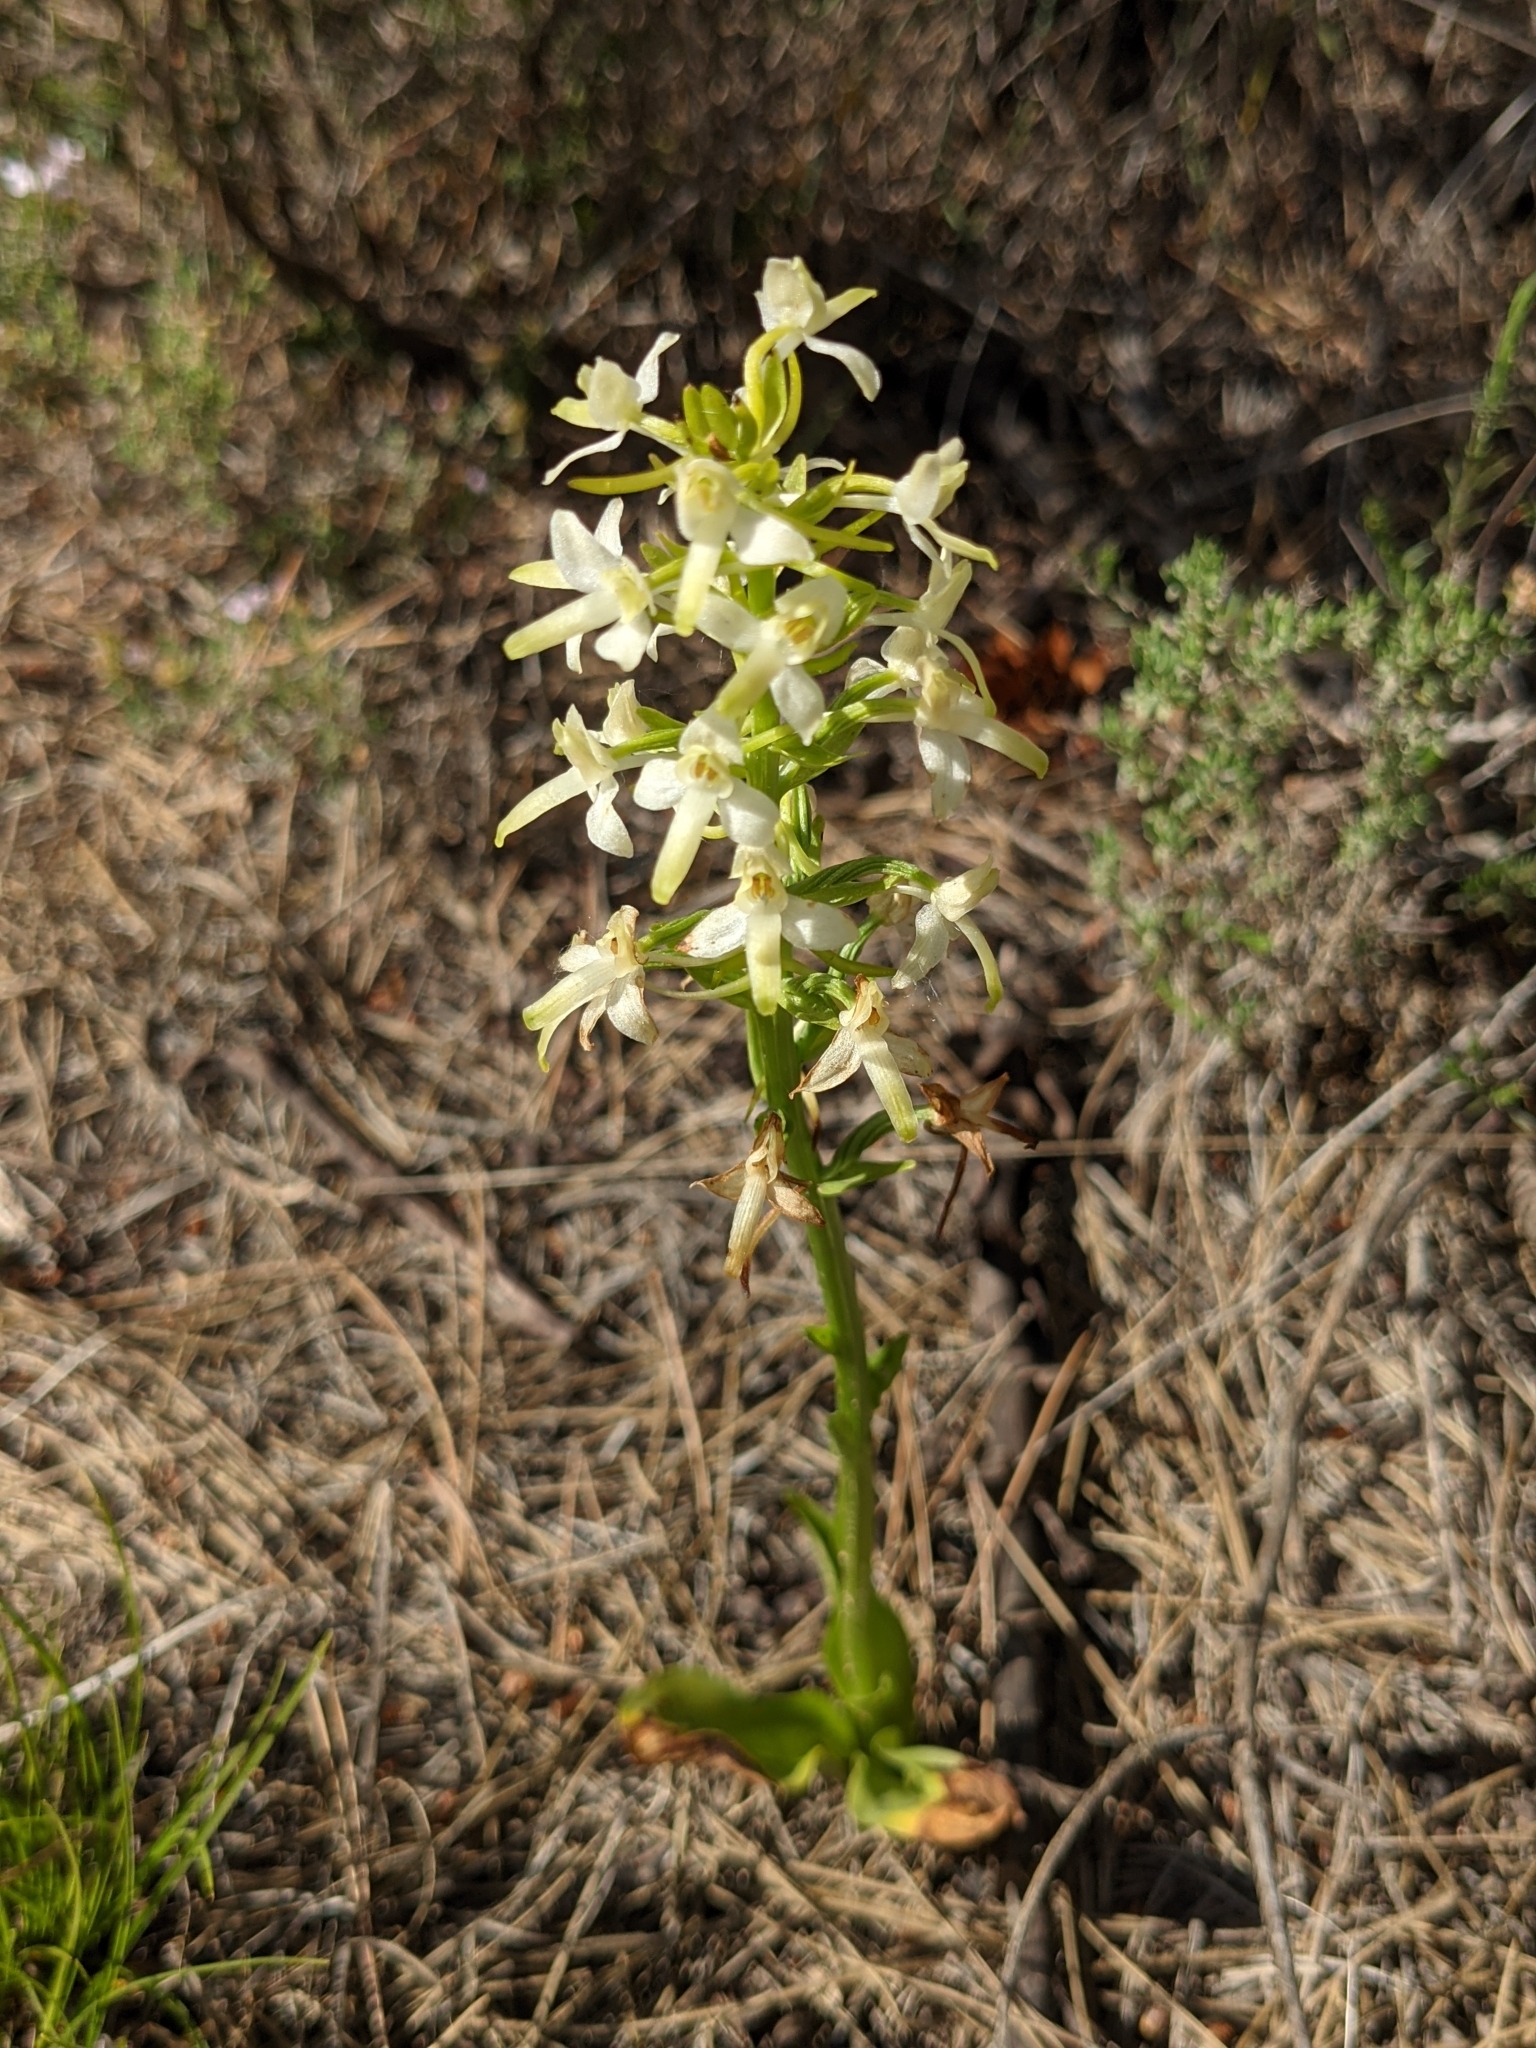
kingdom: Plantae
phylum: Tracheophyta
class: Liliopsida
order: Asparagales
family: Orchidaceae
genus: Platanthera
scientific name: Platanthera bifolia
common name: Lesser butterfly-orchid
